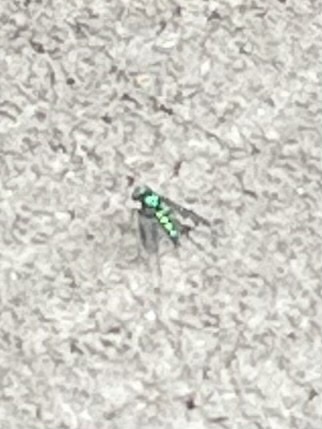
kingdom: Animalia
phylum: Arthropoda
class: Insecta
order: Diptera
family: Dolichopodidae
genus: Condylostylus
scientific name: Condylostylus
